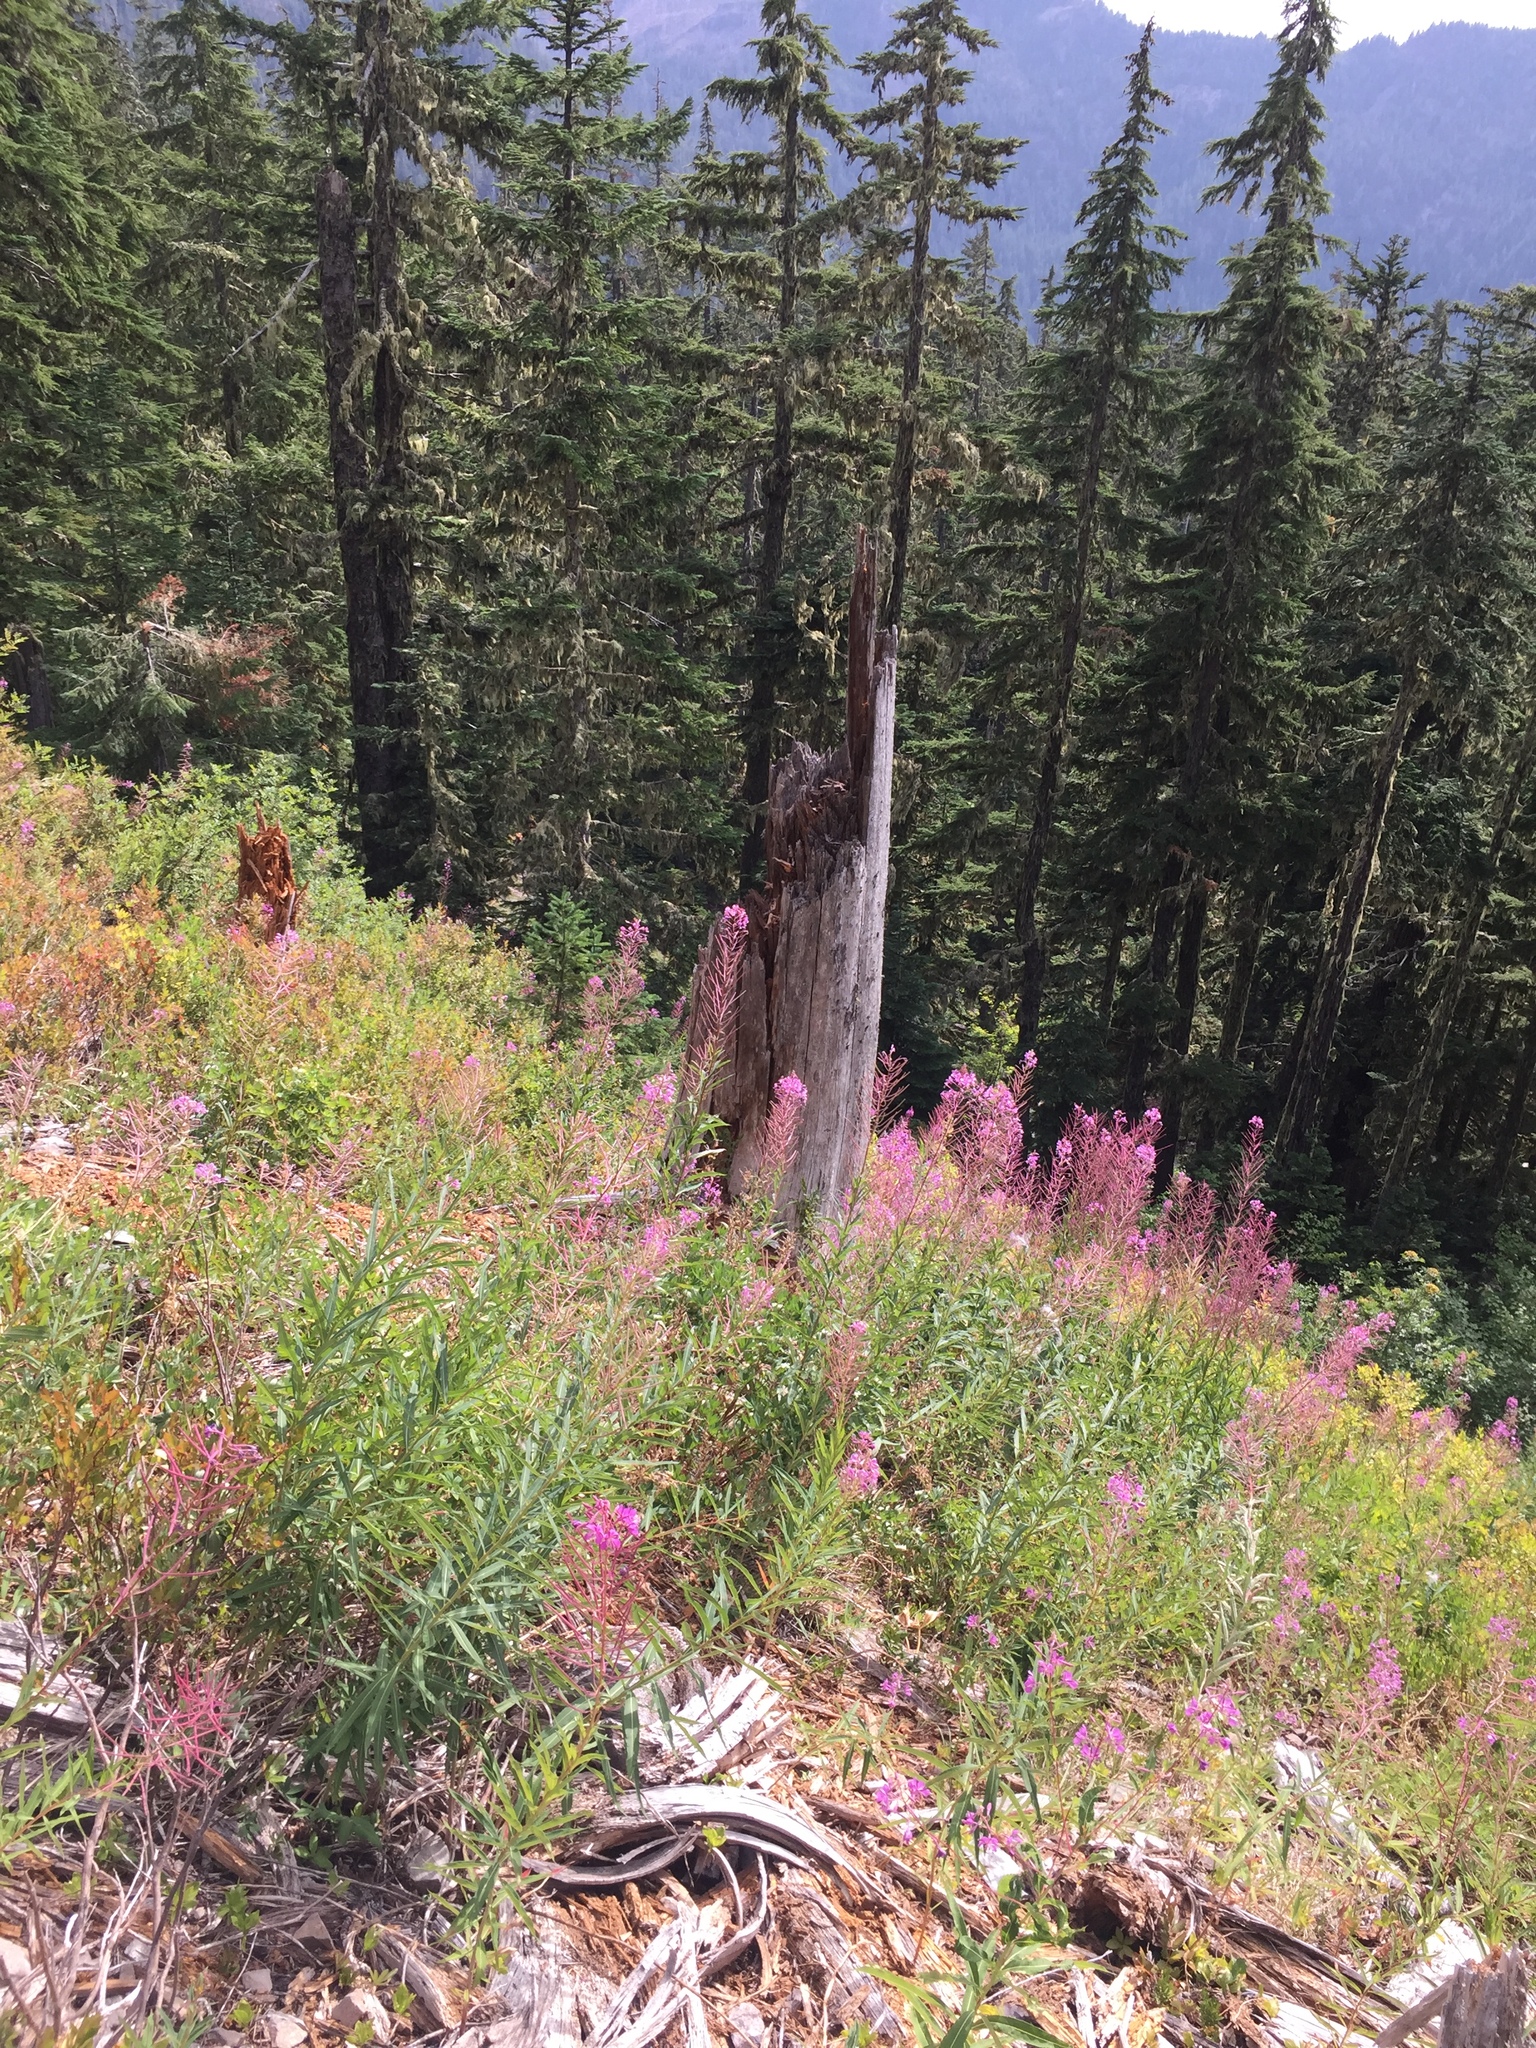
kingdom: Plantae
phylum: Tracheophyta
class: Magnoliopsida
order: Myrtales
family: Onagraceae
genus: Chamaenerion
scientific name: Chamaenerion angustifolium
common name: Fireweed
